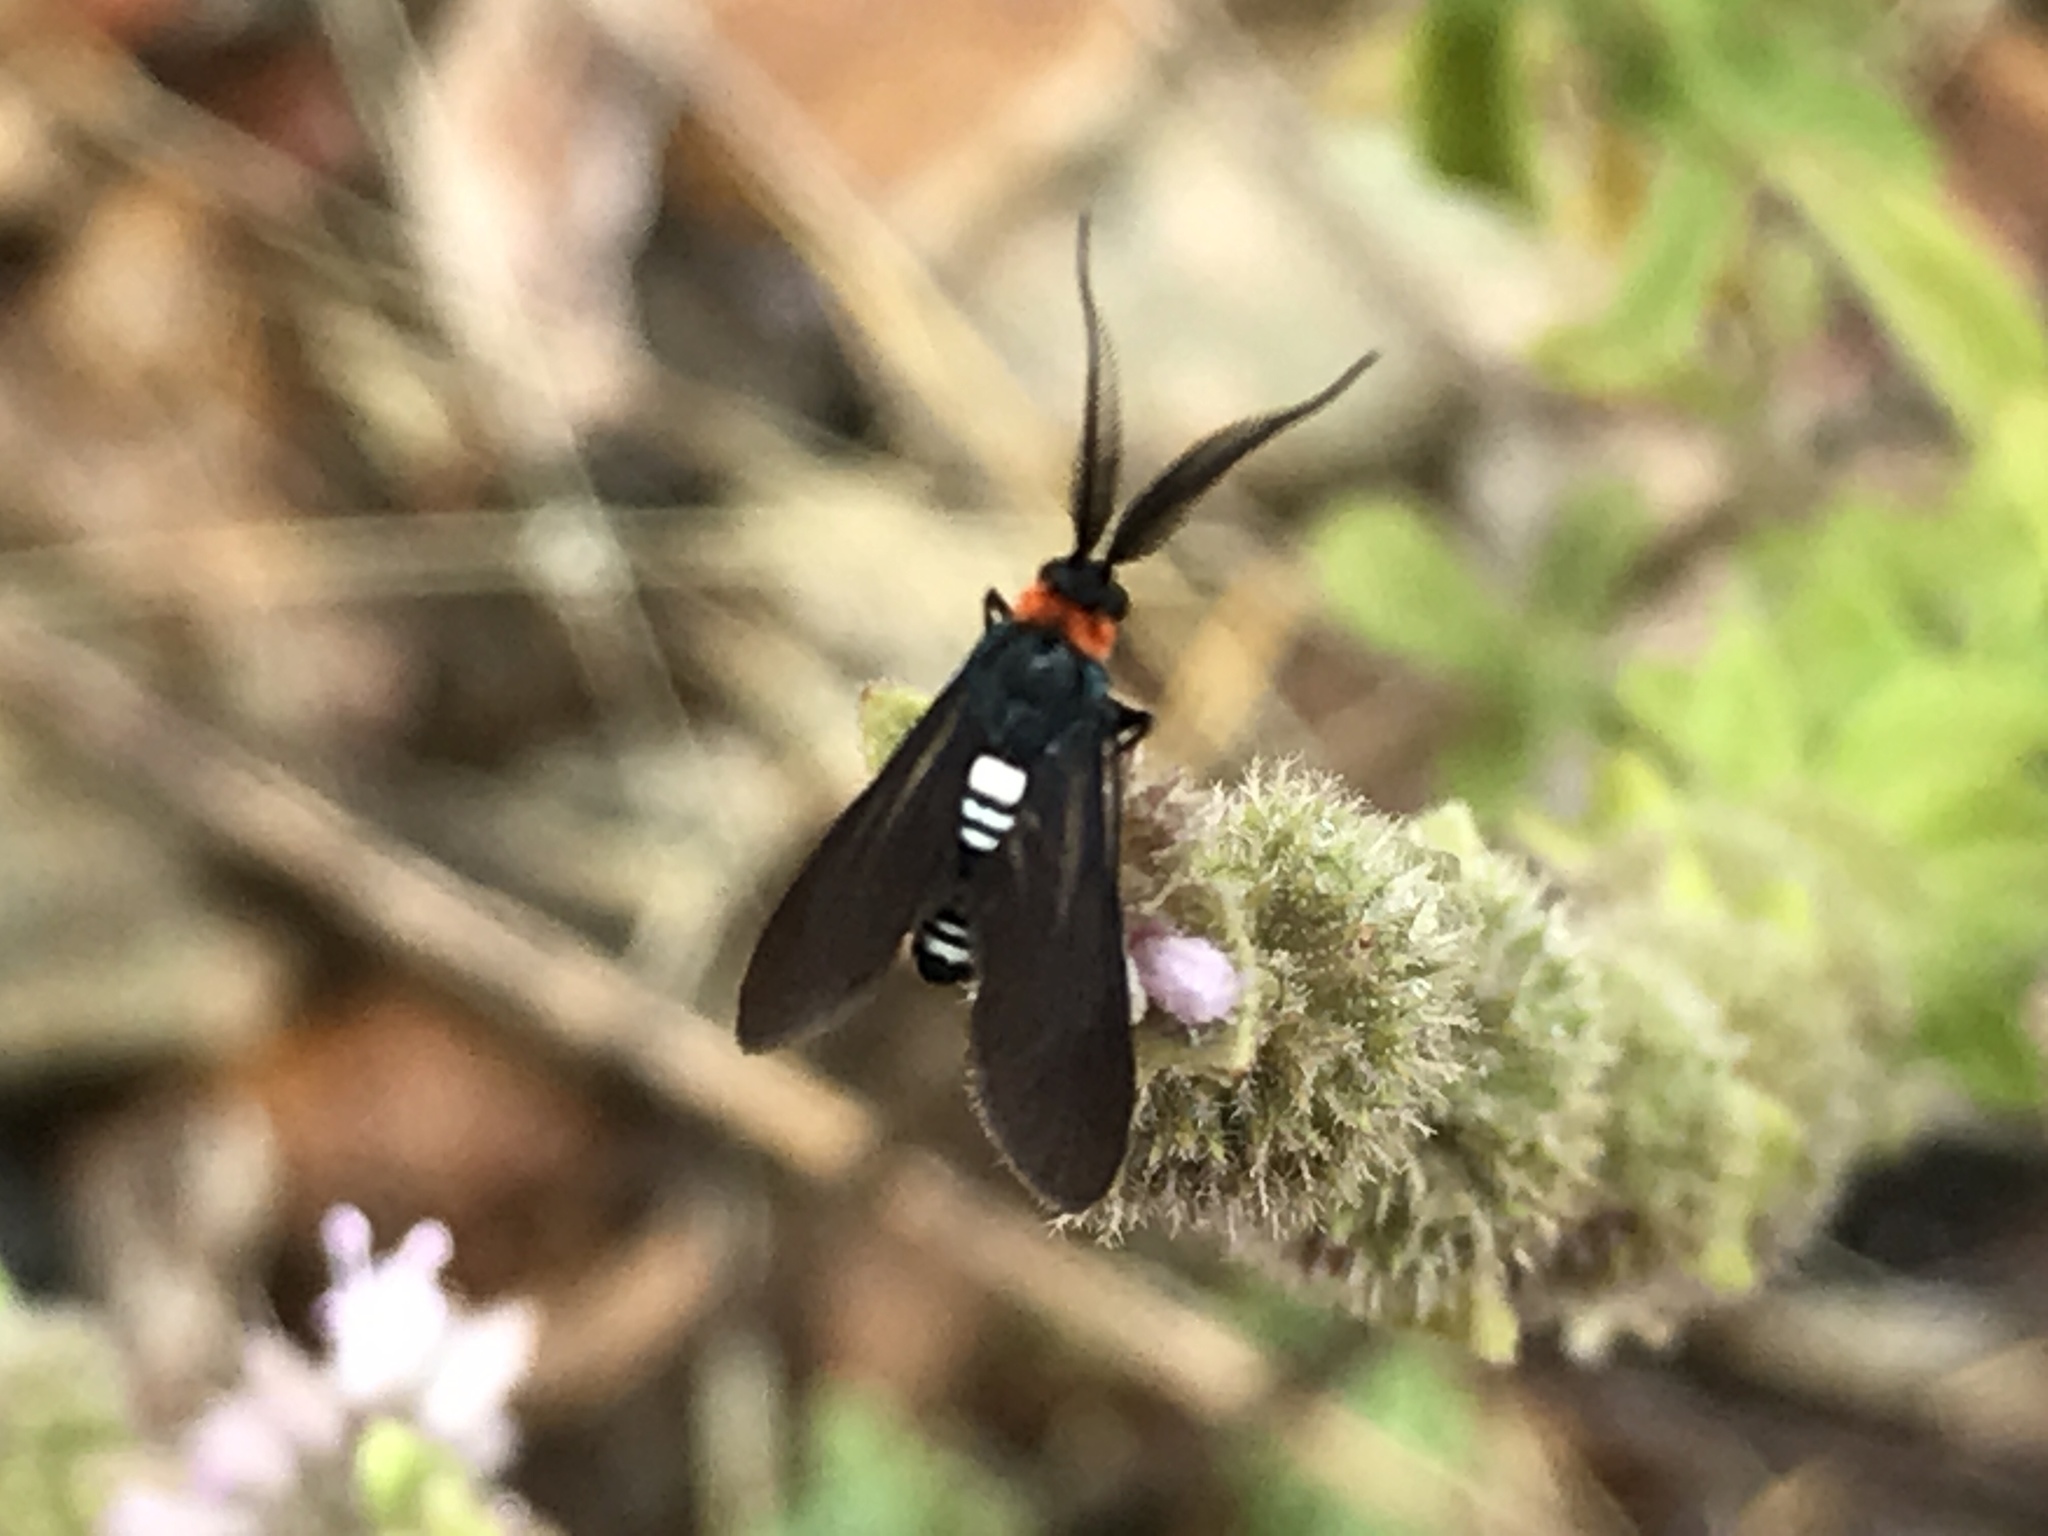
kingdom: Animalia
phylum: Arthropoda
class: Insecta
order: Lepidoptera
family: Zygaenidae
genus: Hestiochora
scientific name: Hestiochora
